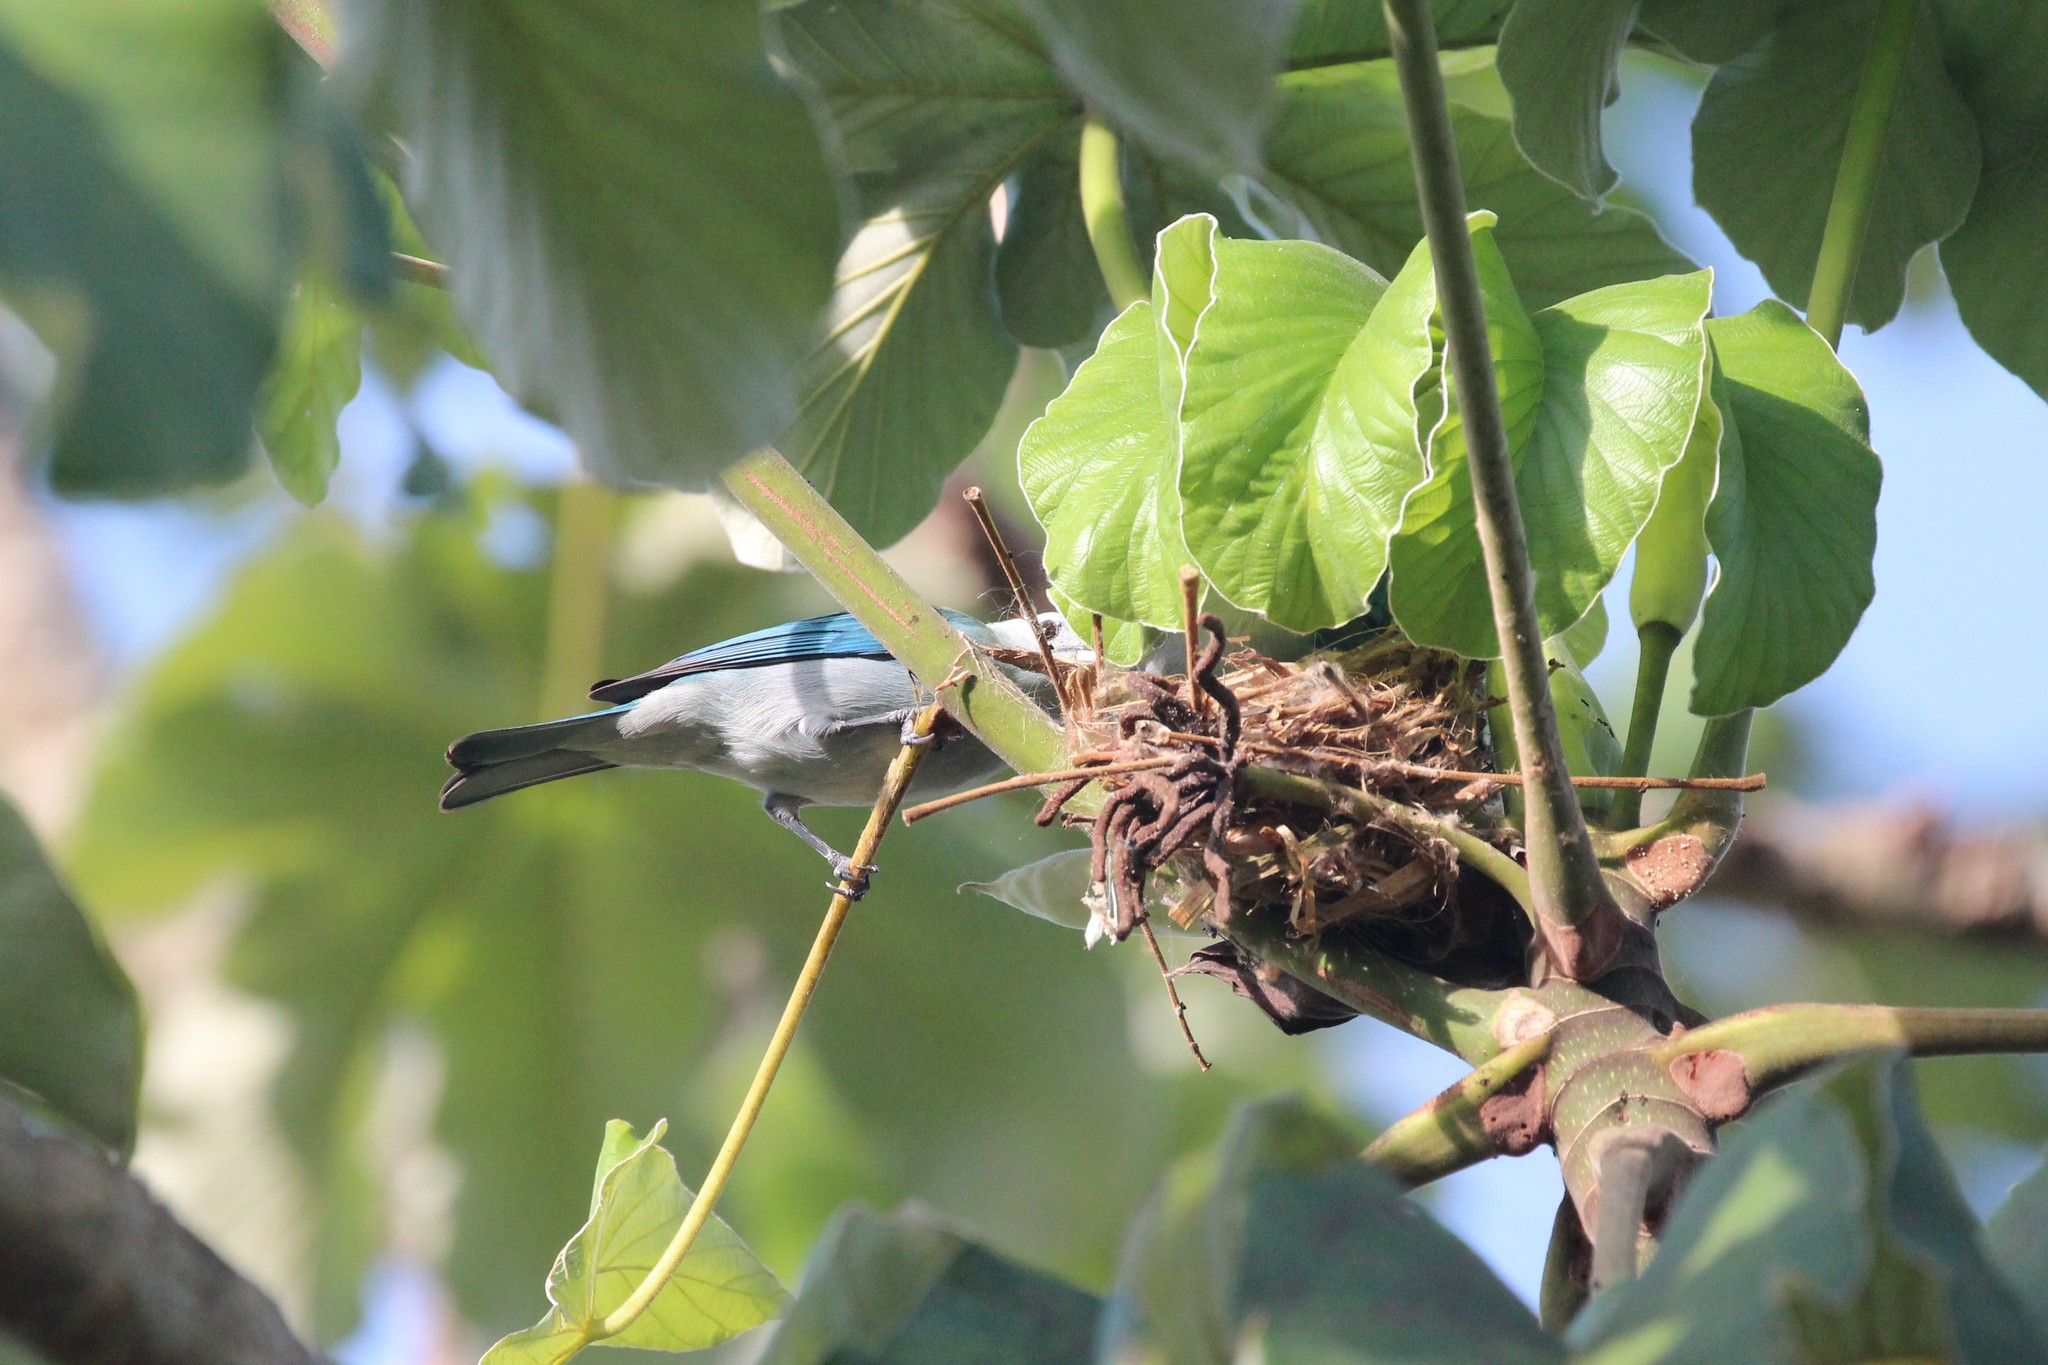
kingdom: Animalia
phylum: Chordata
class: Aves
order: Passeriformes
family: Thraupidae
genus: Thraupis
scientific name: Thraupis episcopus
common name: Blue-grey tanager
